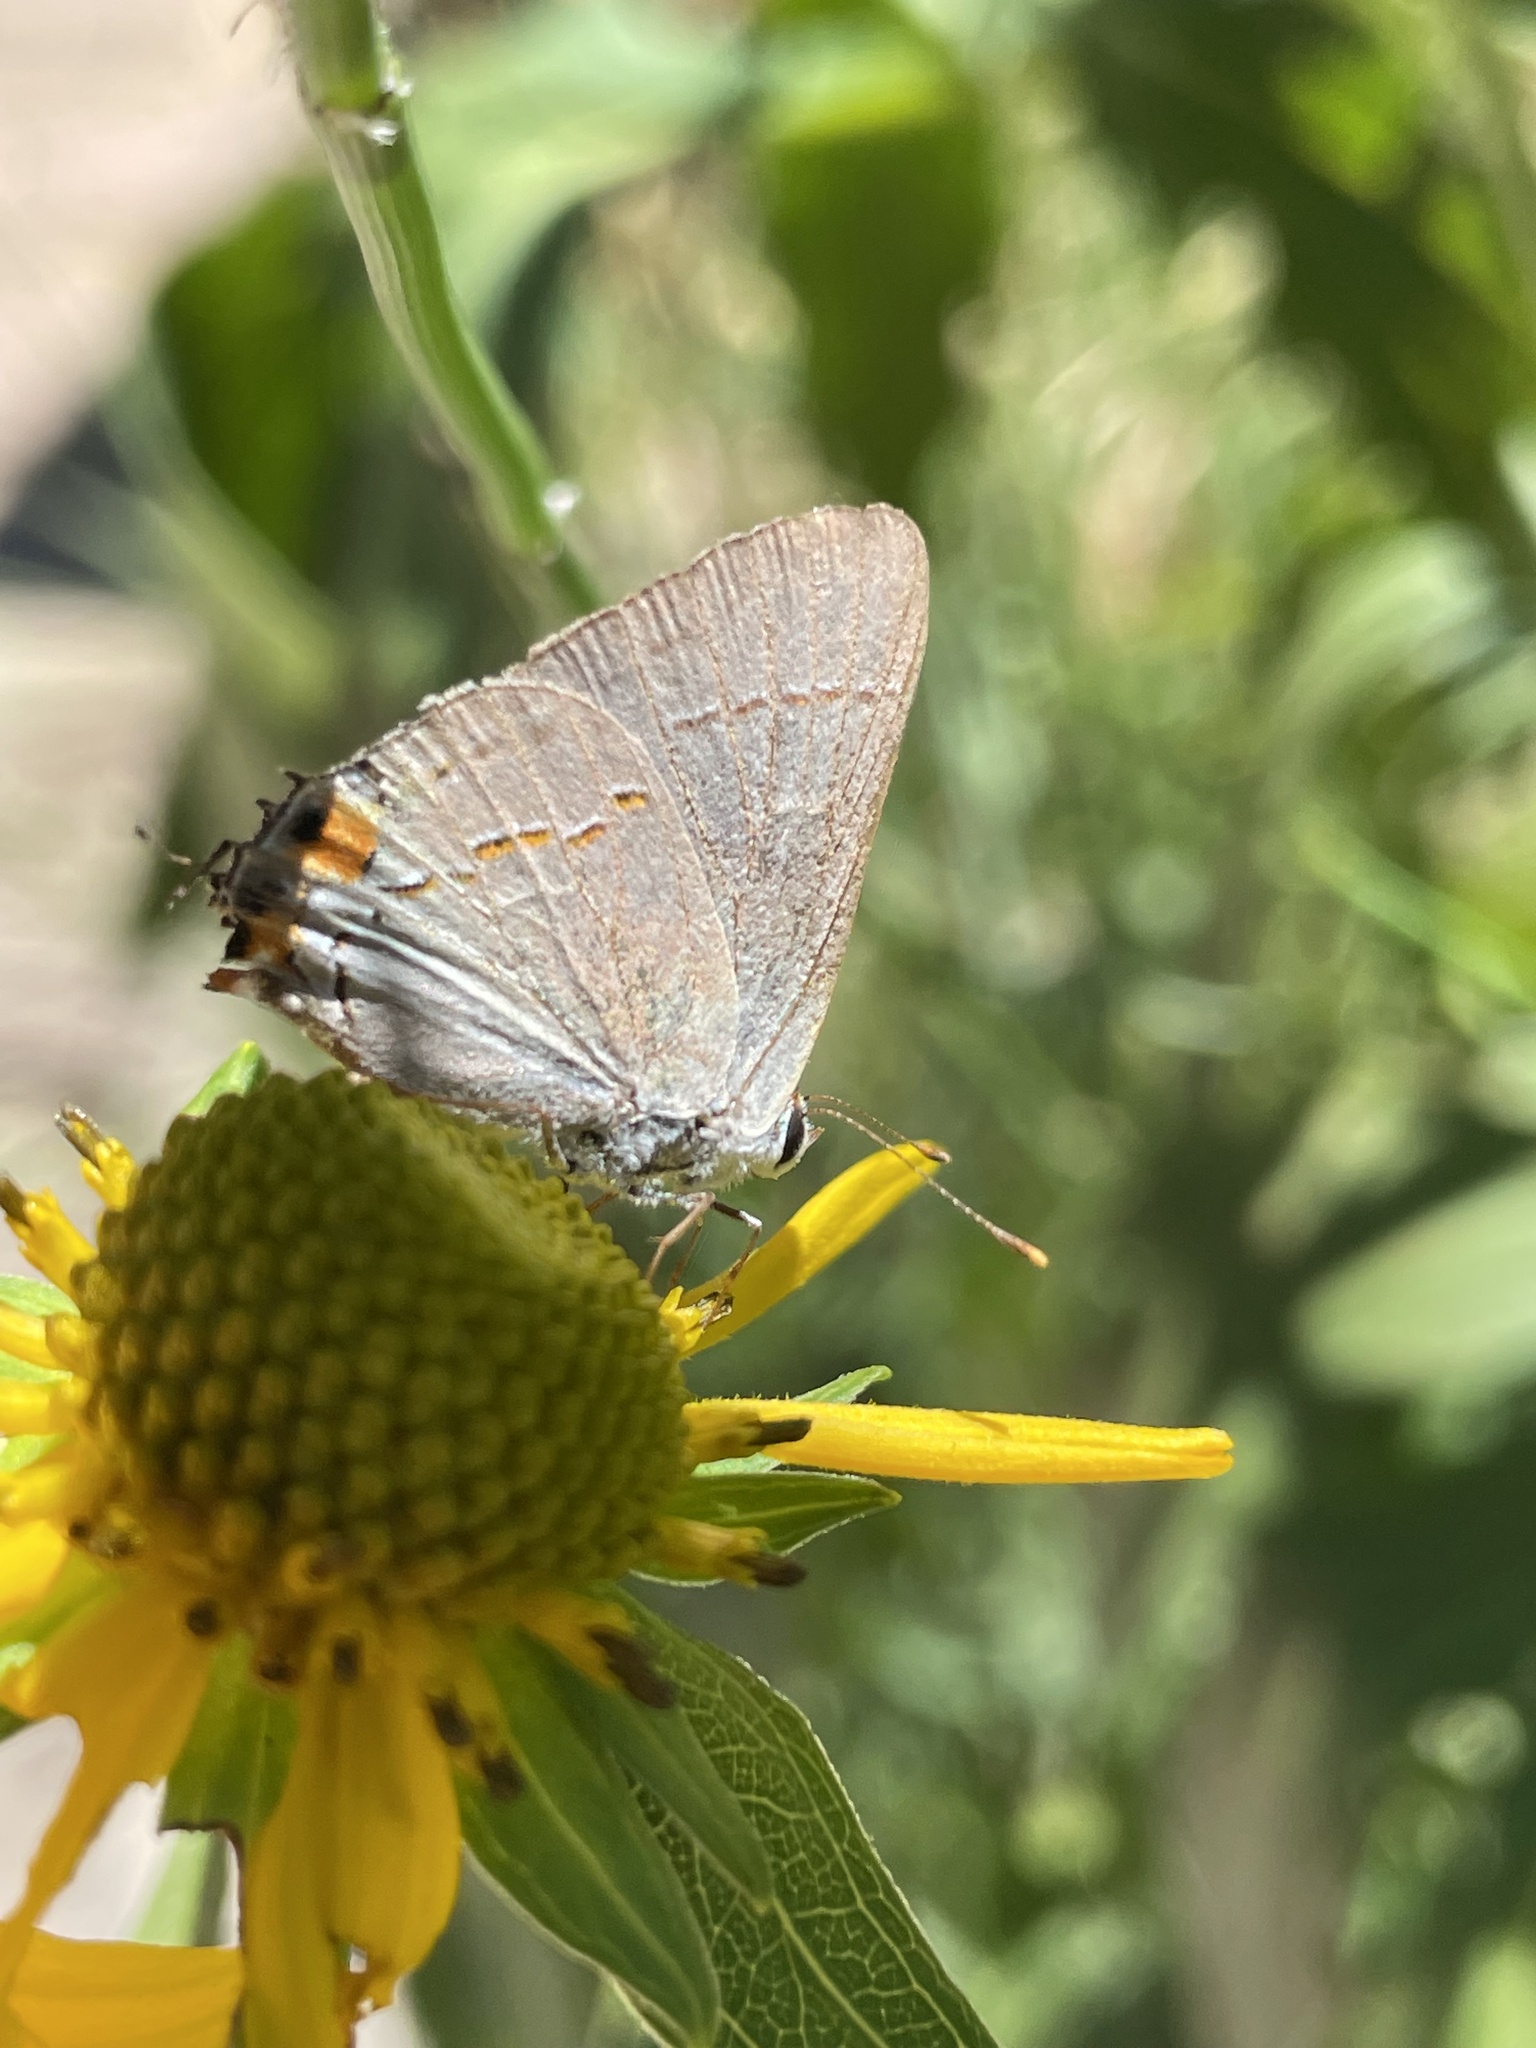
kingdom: Animalia
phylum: Arthropoda
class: Insecta
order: Lepidoptera
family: Lycaenidae
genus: Strymon
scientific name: Strymon melinus
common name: Gray hairstreak
